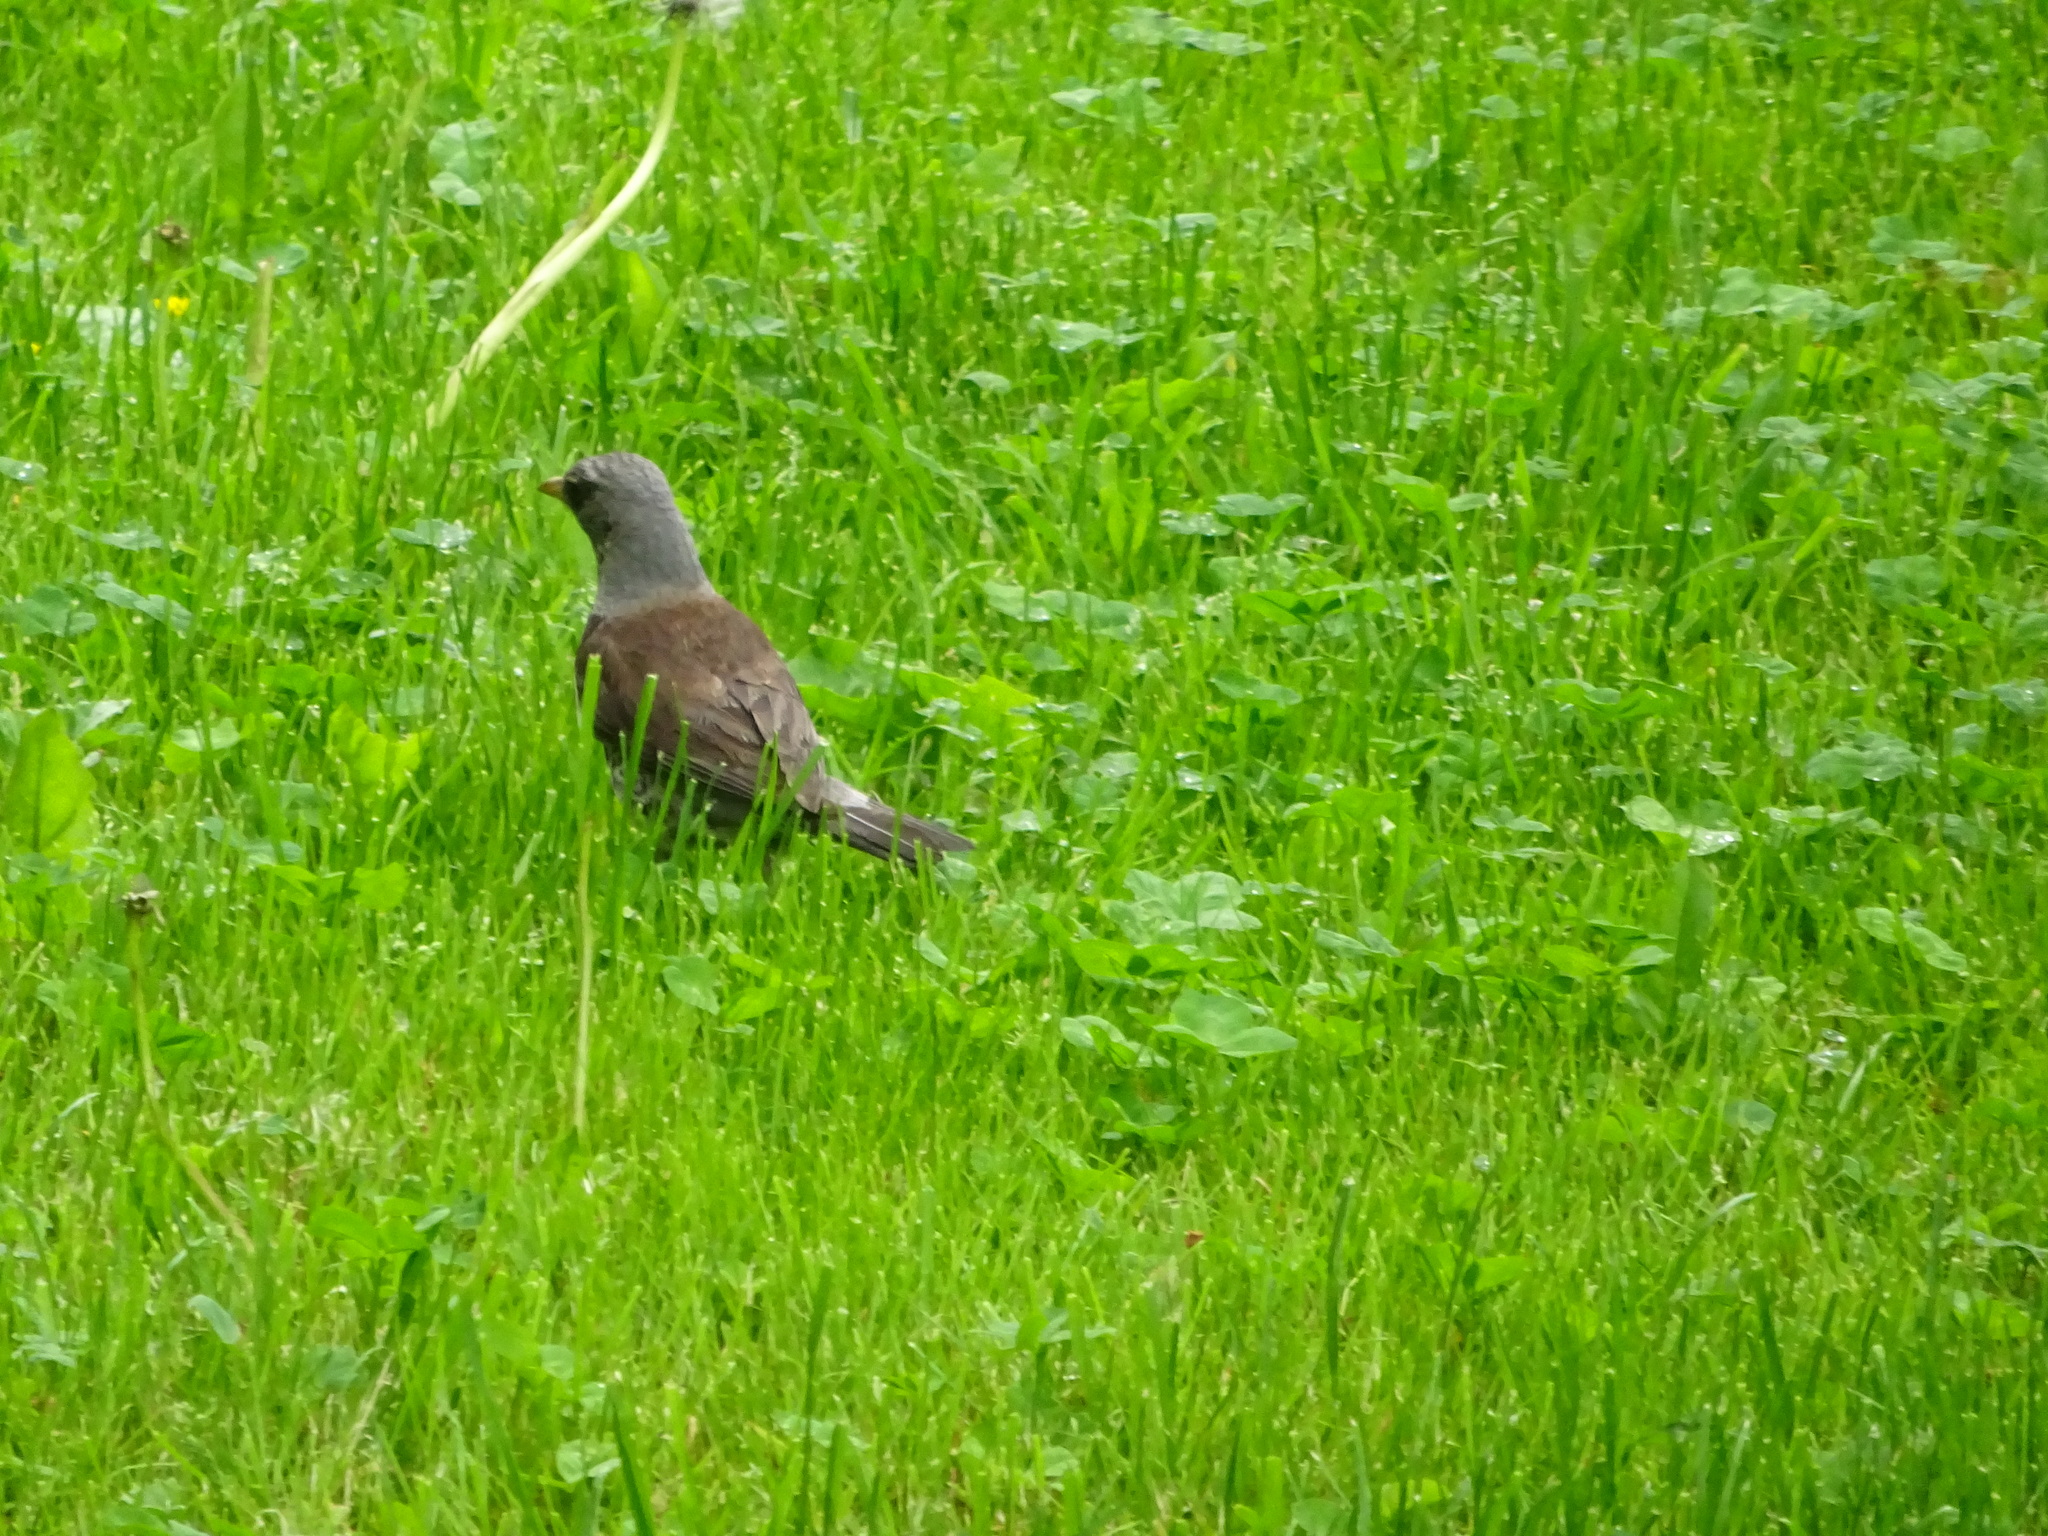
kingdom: Animalia
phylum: Chordata
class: Aves
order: Passeriformes
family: Turdidae
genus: Turdus
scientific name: Turdus pilaris
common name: Fieldfare
